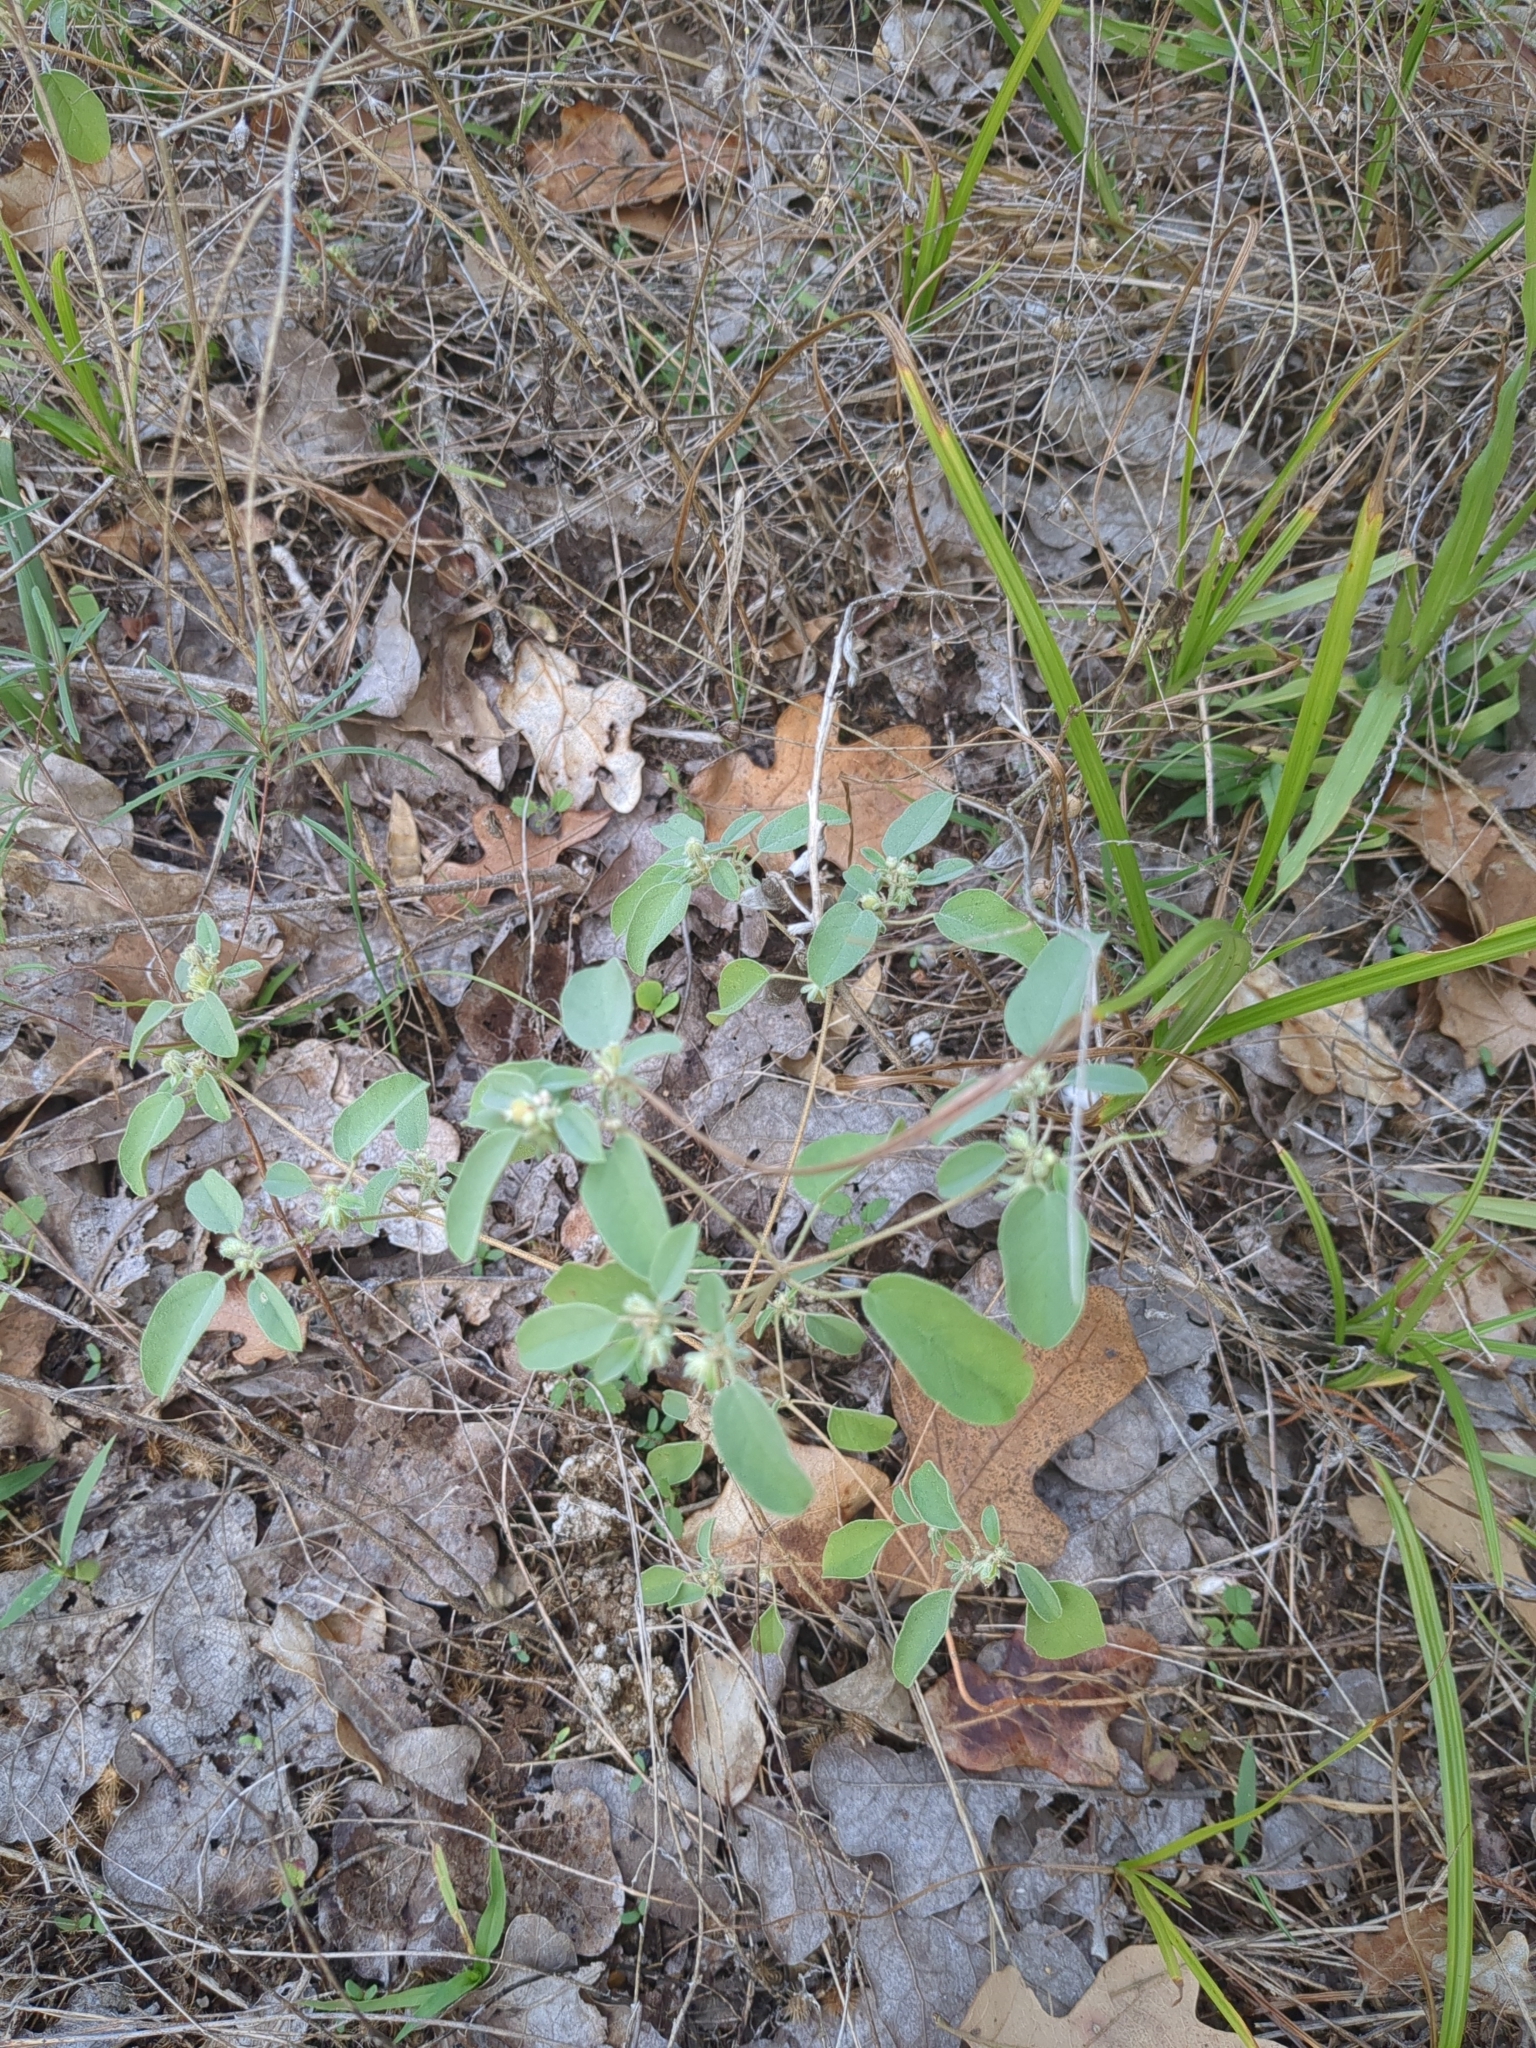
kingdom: Plantae
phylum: Tracheophyta
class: Magnoliopsida
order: Malpighiales
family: Euphorbiaceae
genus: Croton
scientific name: Croton monanthogynus
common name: One-seed croton
